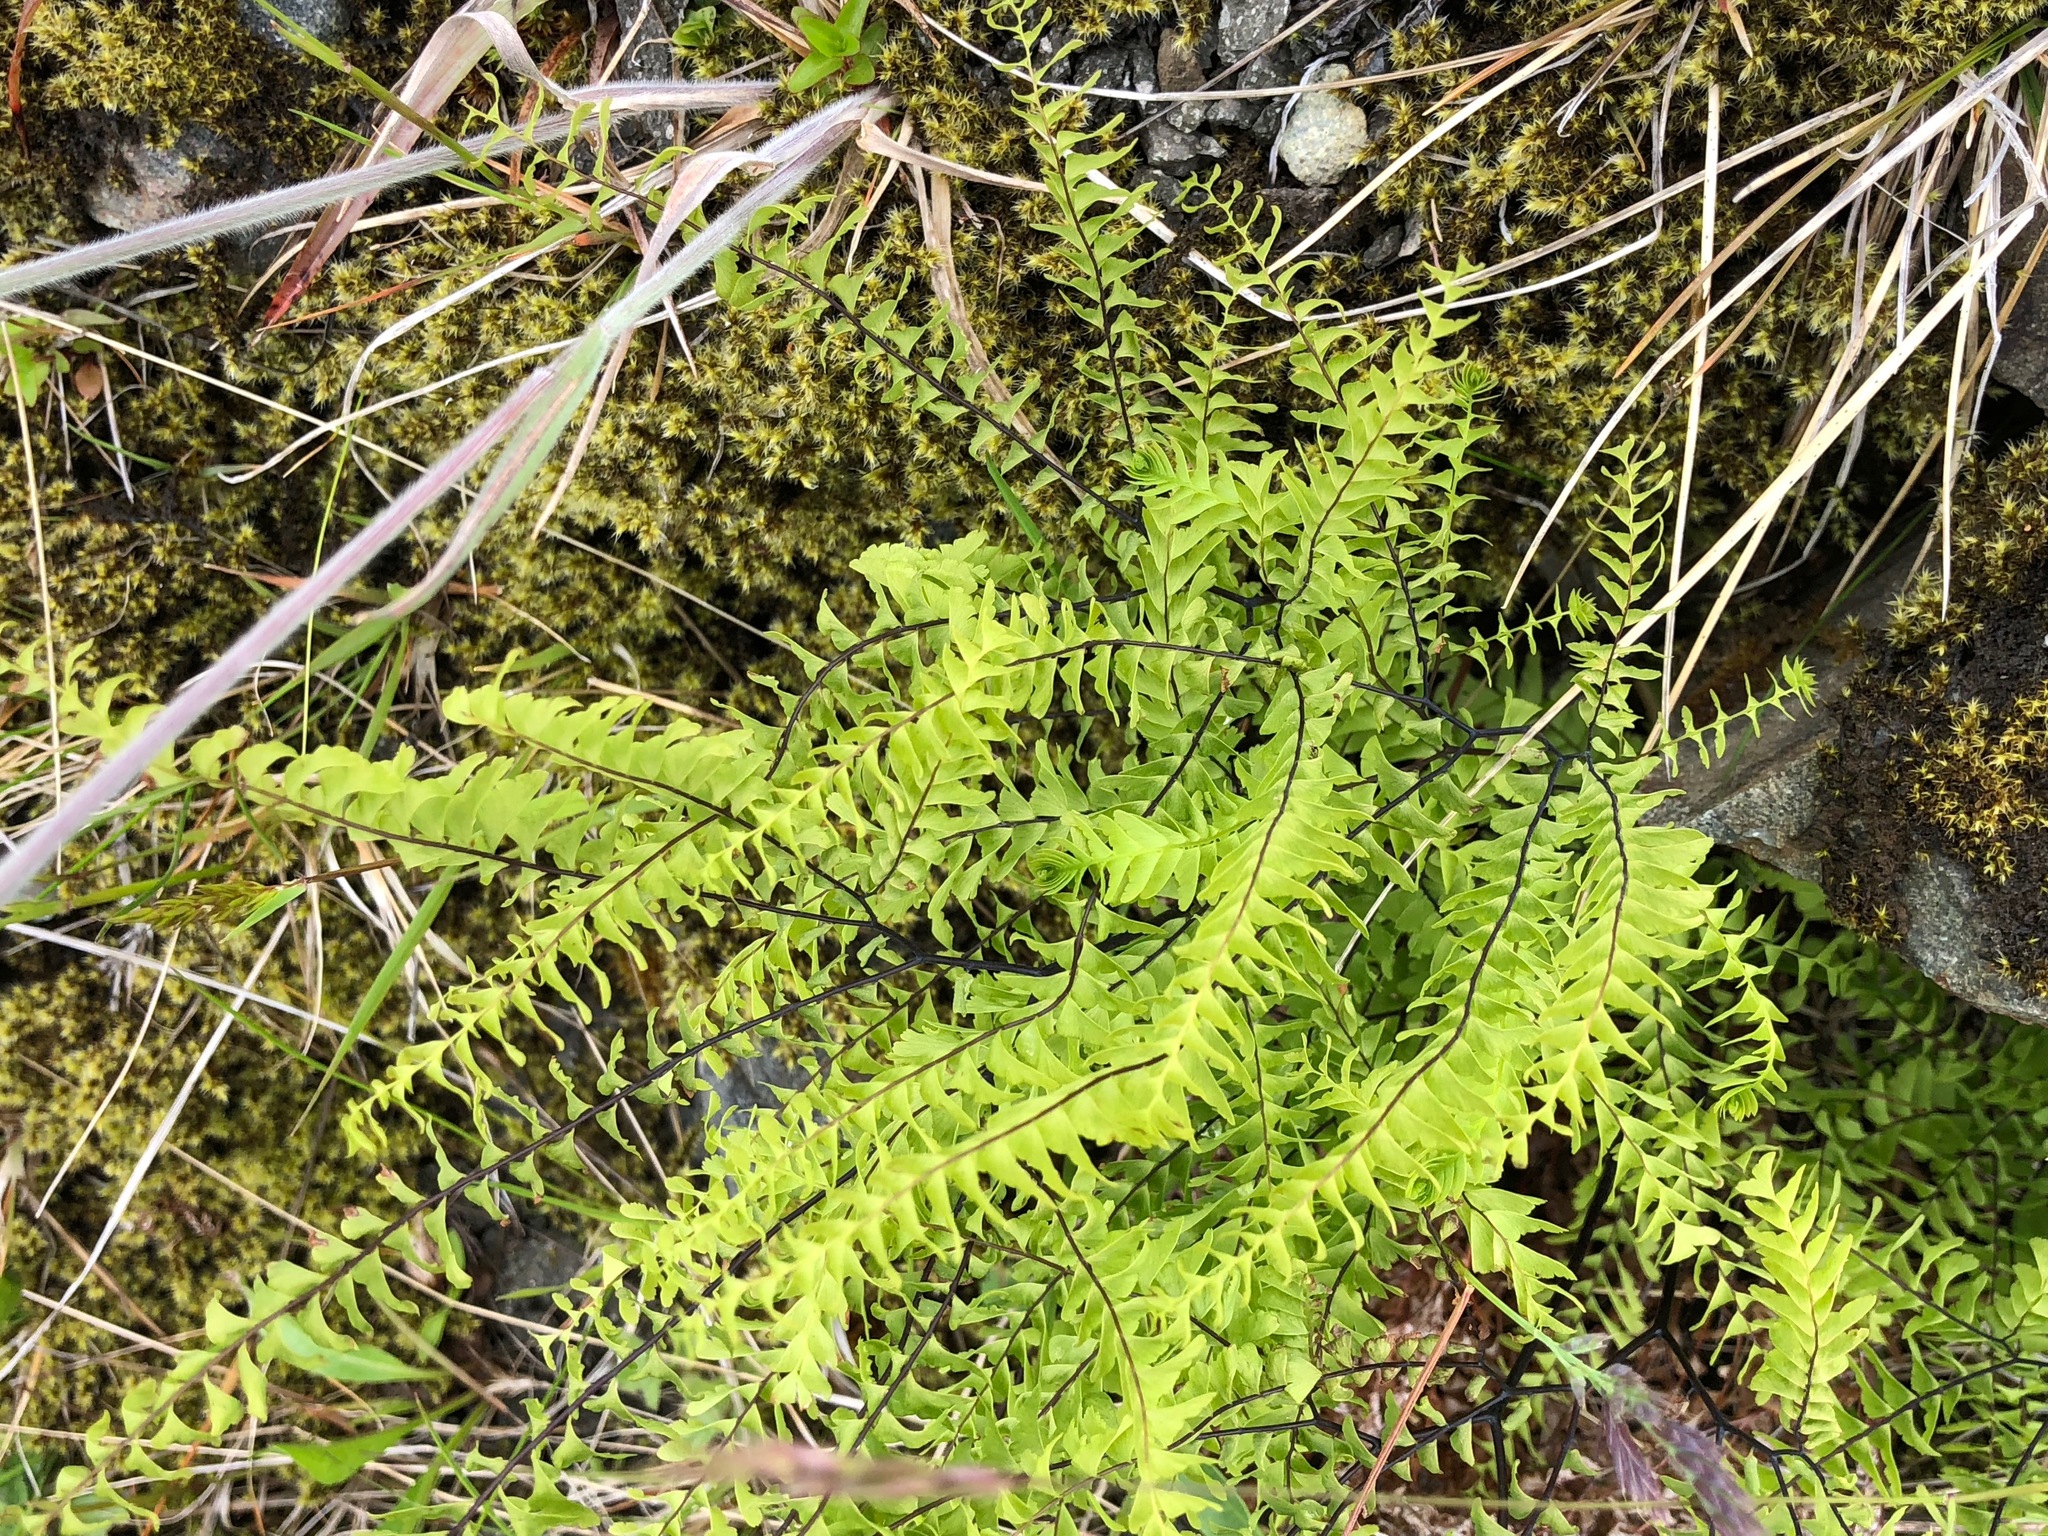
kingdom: Plantae
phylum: Tracheophyta
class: Polypodiopsida
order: Polypodiales
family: Pteridaceae
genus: Adiantum
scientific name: Adiantum aleuticum
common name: Aleutian maidenhair fern
